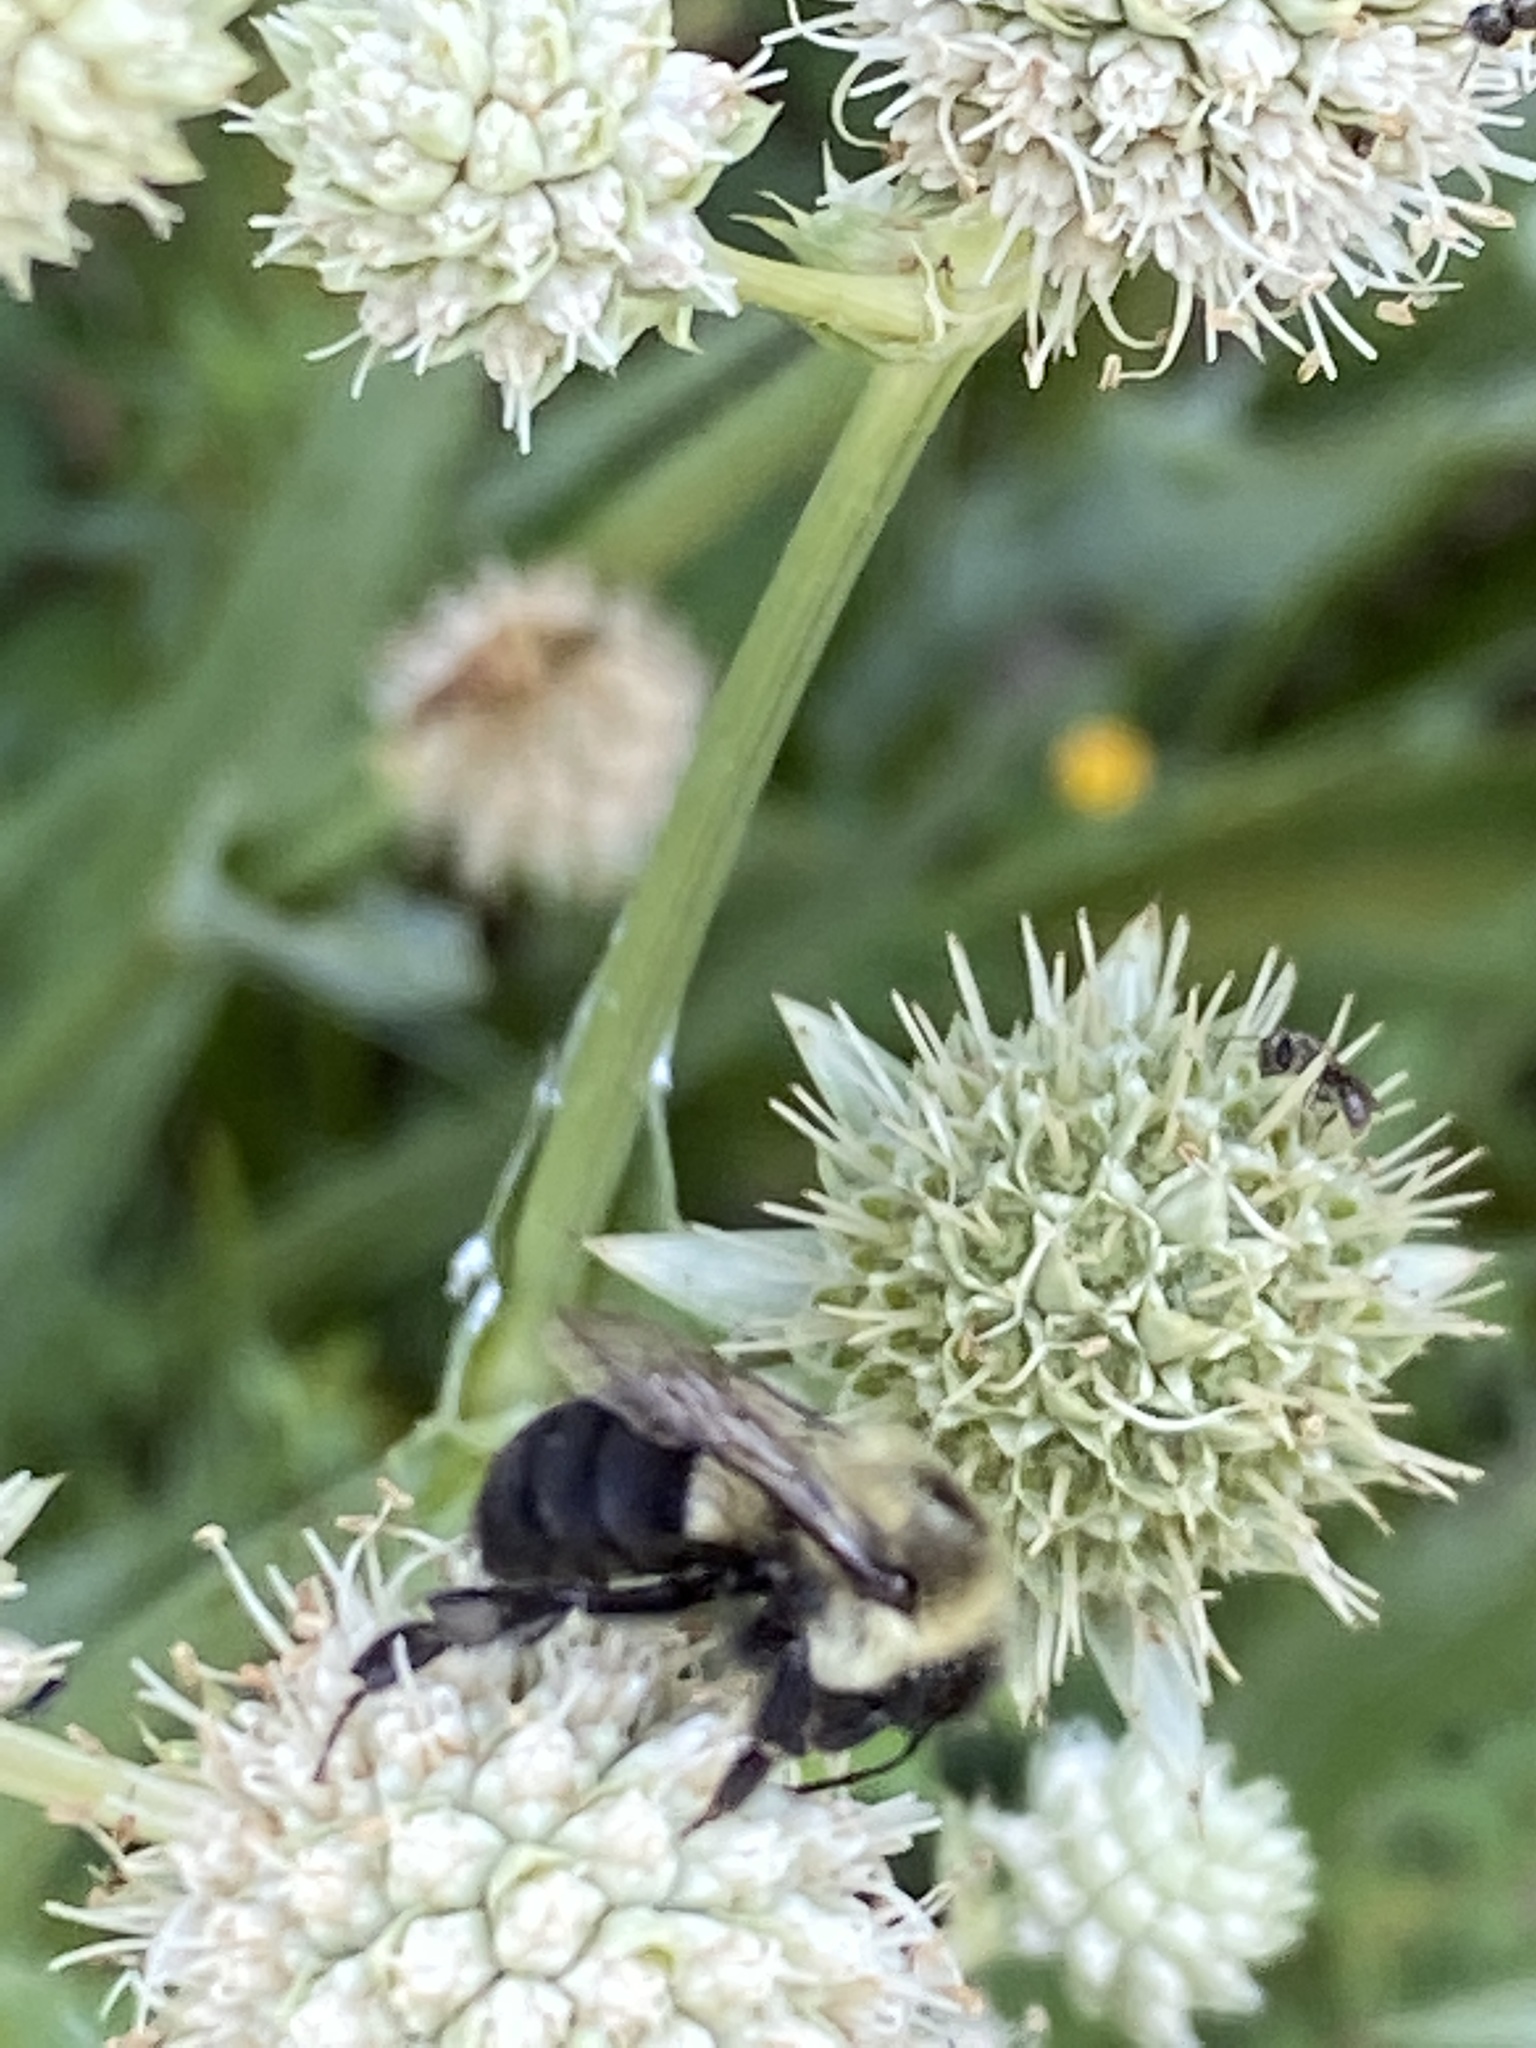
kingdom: Animalia
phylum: Arthropoda
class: Insecta
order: Hymenoptera
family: Apidae
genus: Bombus
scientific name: Bombus impatiens
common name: Common eastern bumble bee
